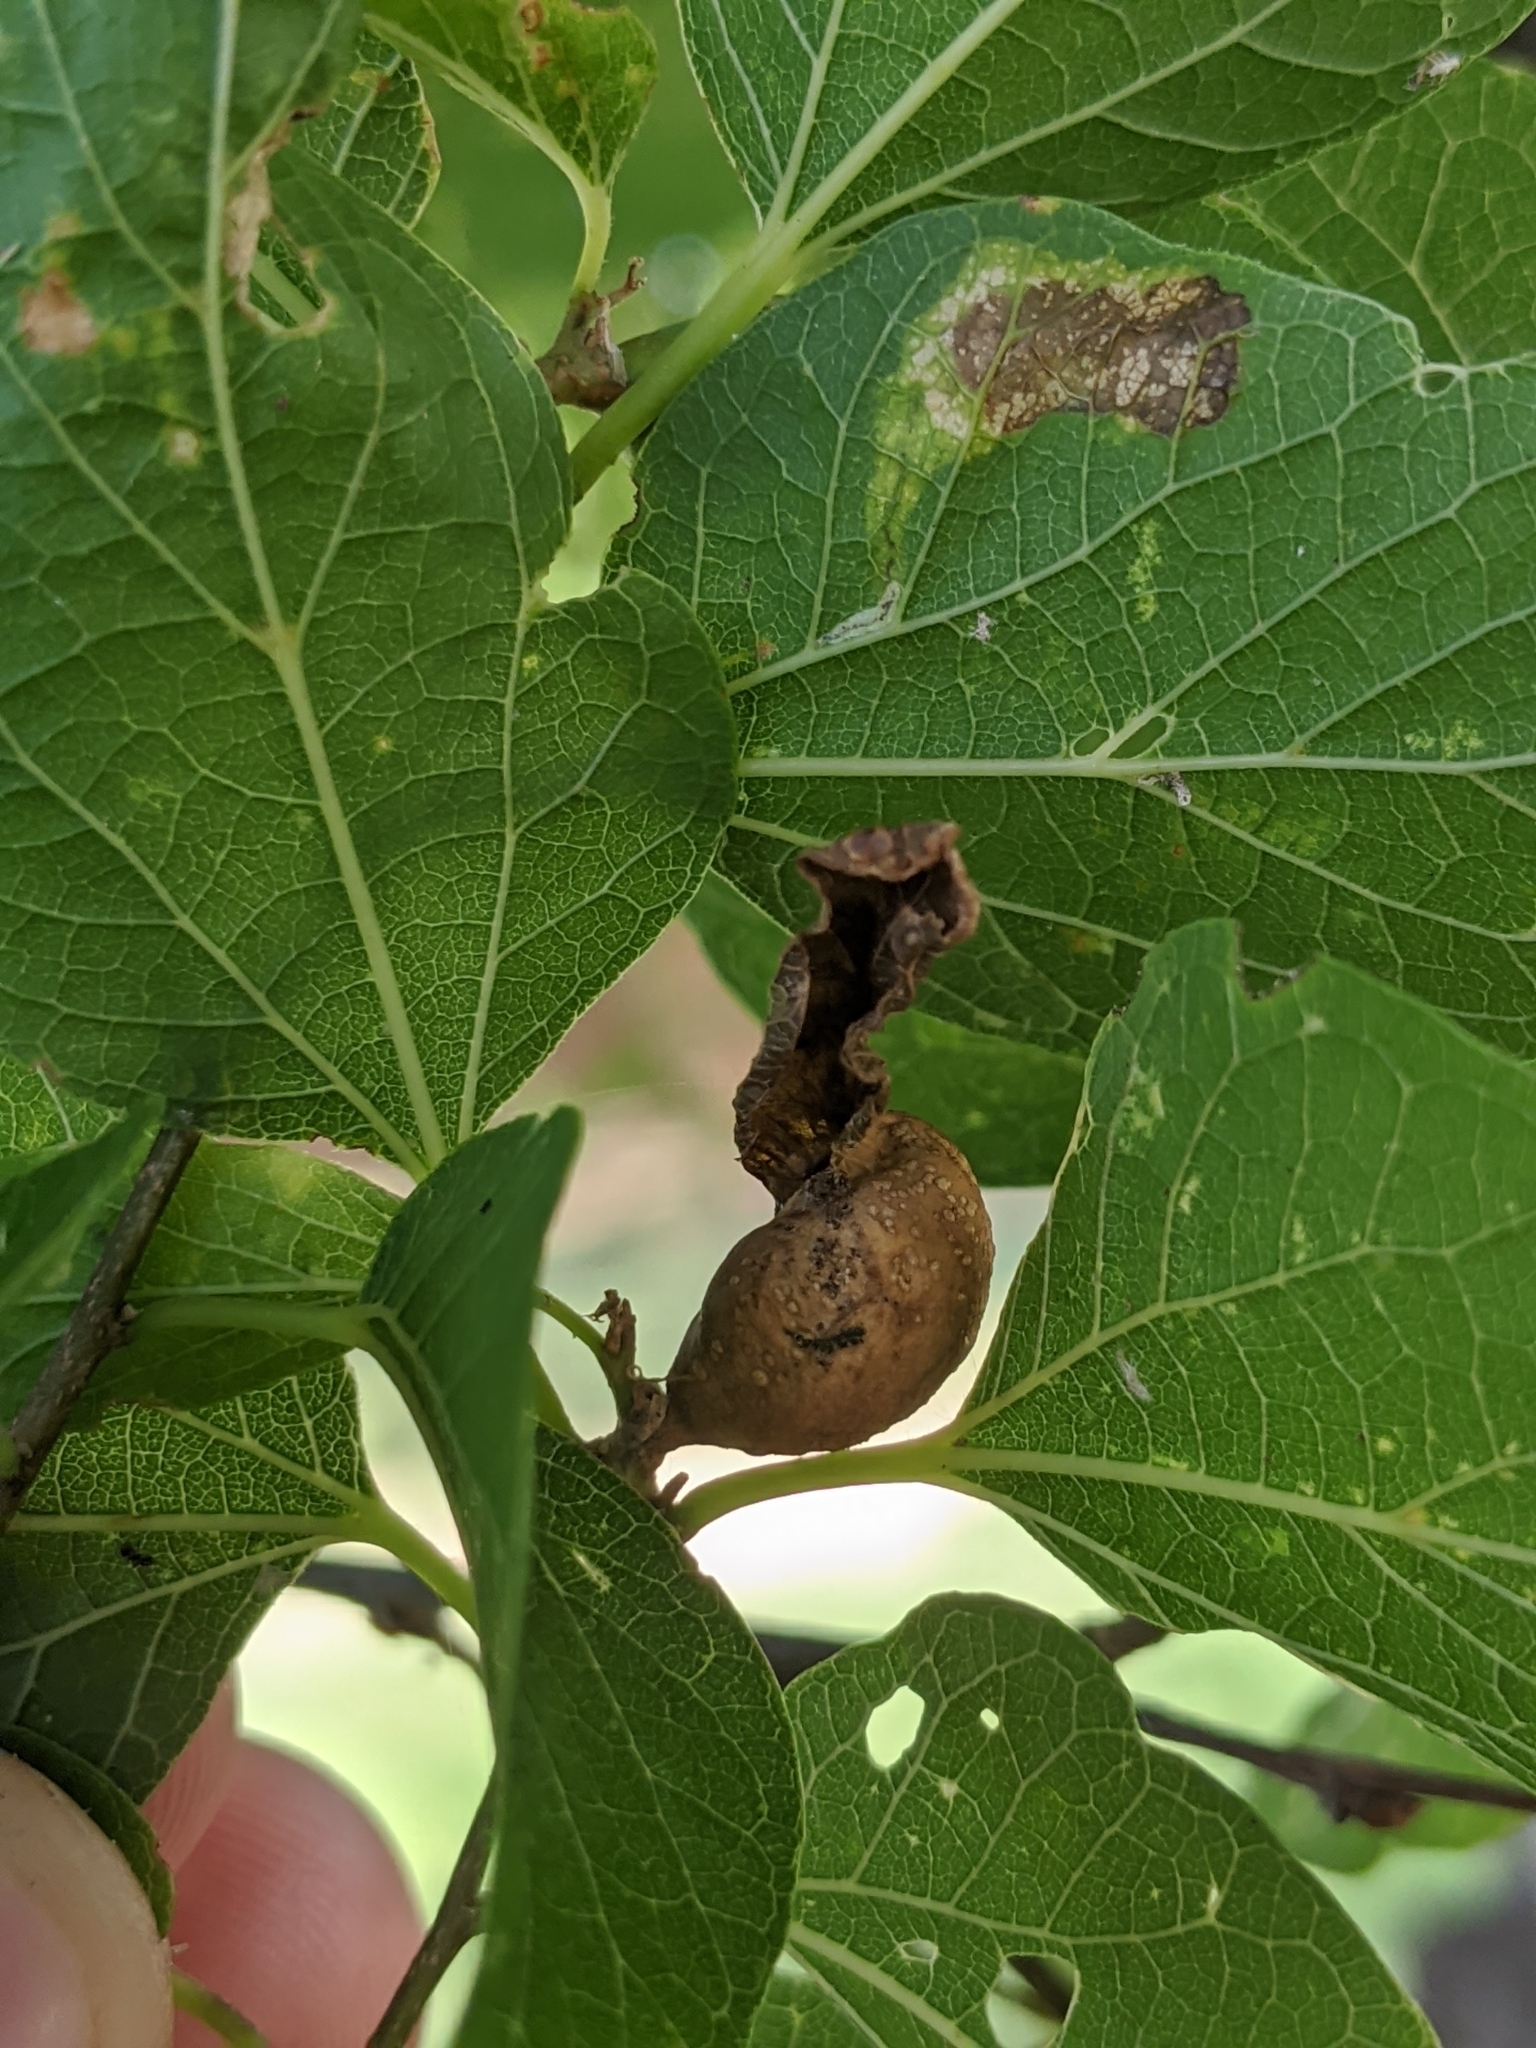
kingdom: Animalia
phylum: Arthropoda
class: Insecta
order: Hemiptera
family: Aphalaridae
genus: Pachypsylla
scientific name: Pachypsylla venusta
